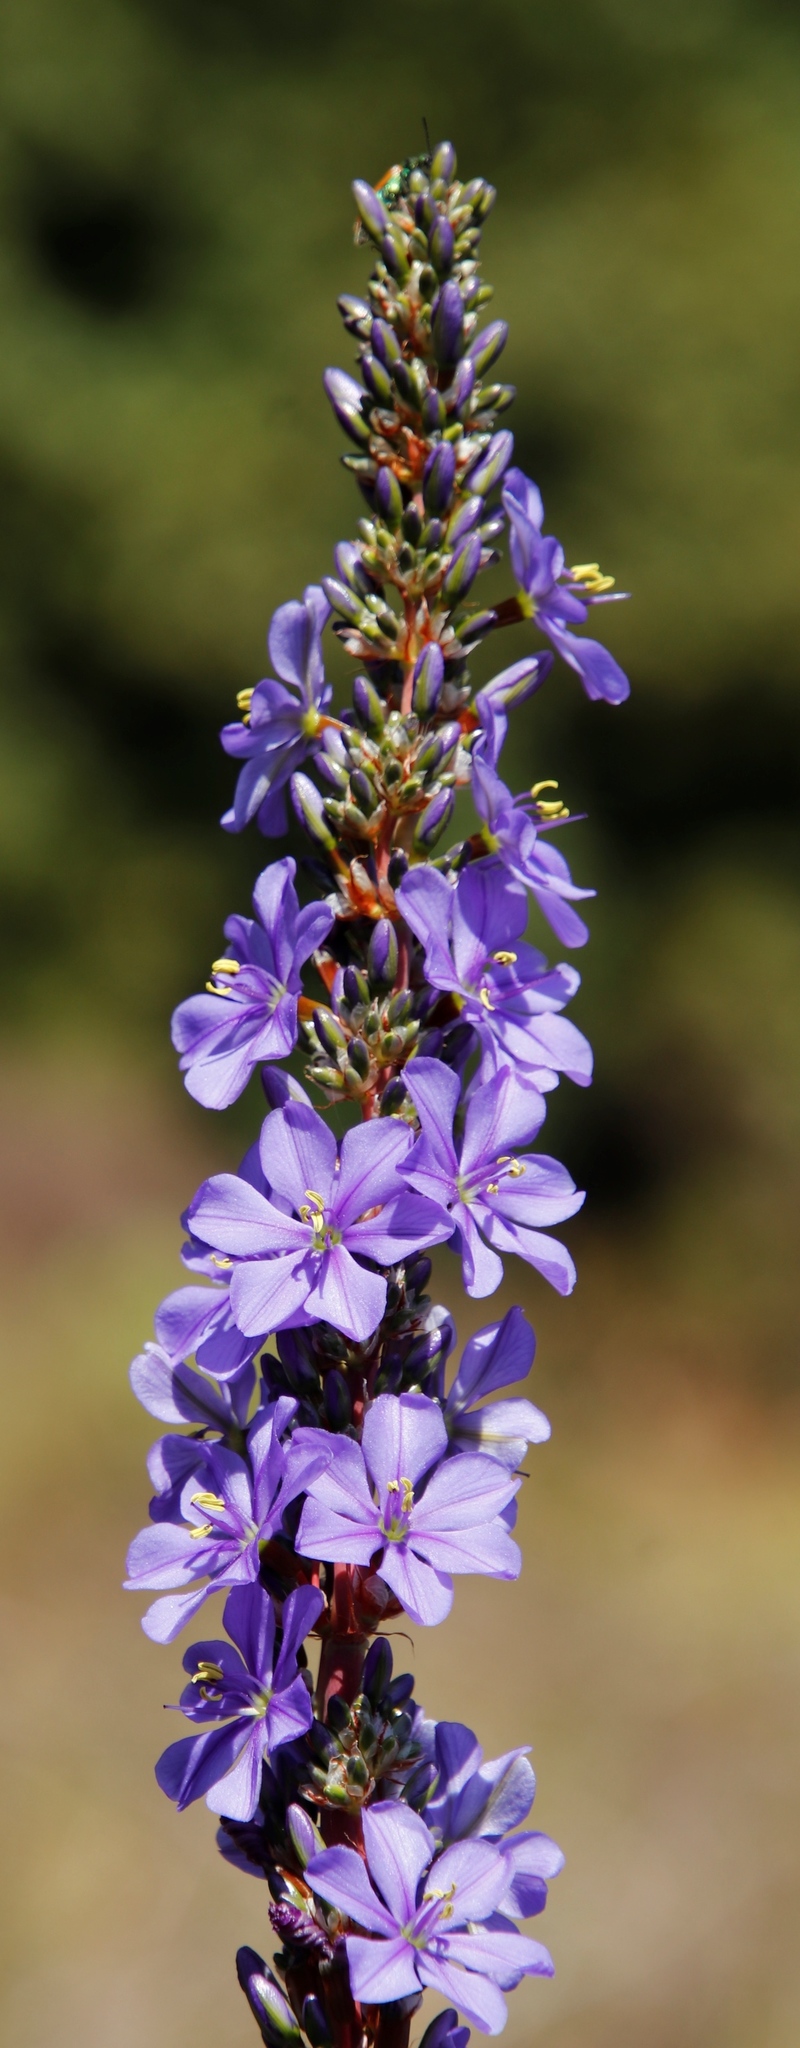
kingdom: Plantae
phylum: Tracheophyta
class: Liliopsida
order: Asparagales
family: Iridaceae
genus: Aristea
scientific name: Aristea capitata
